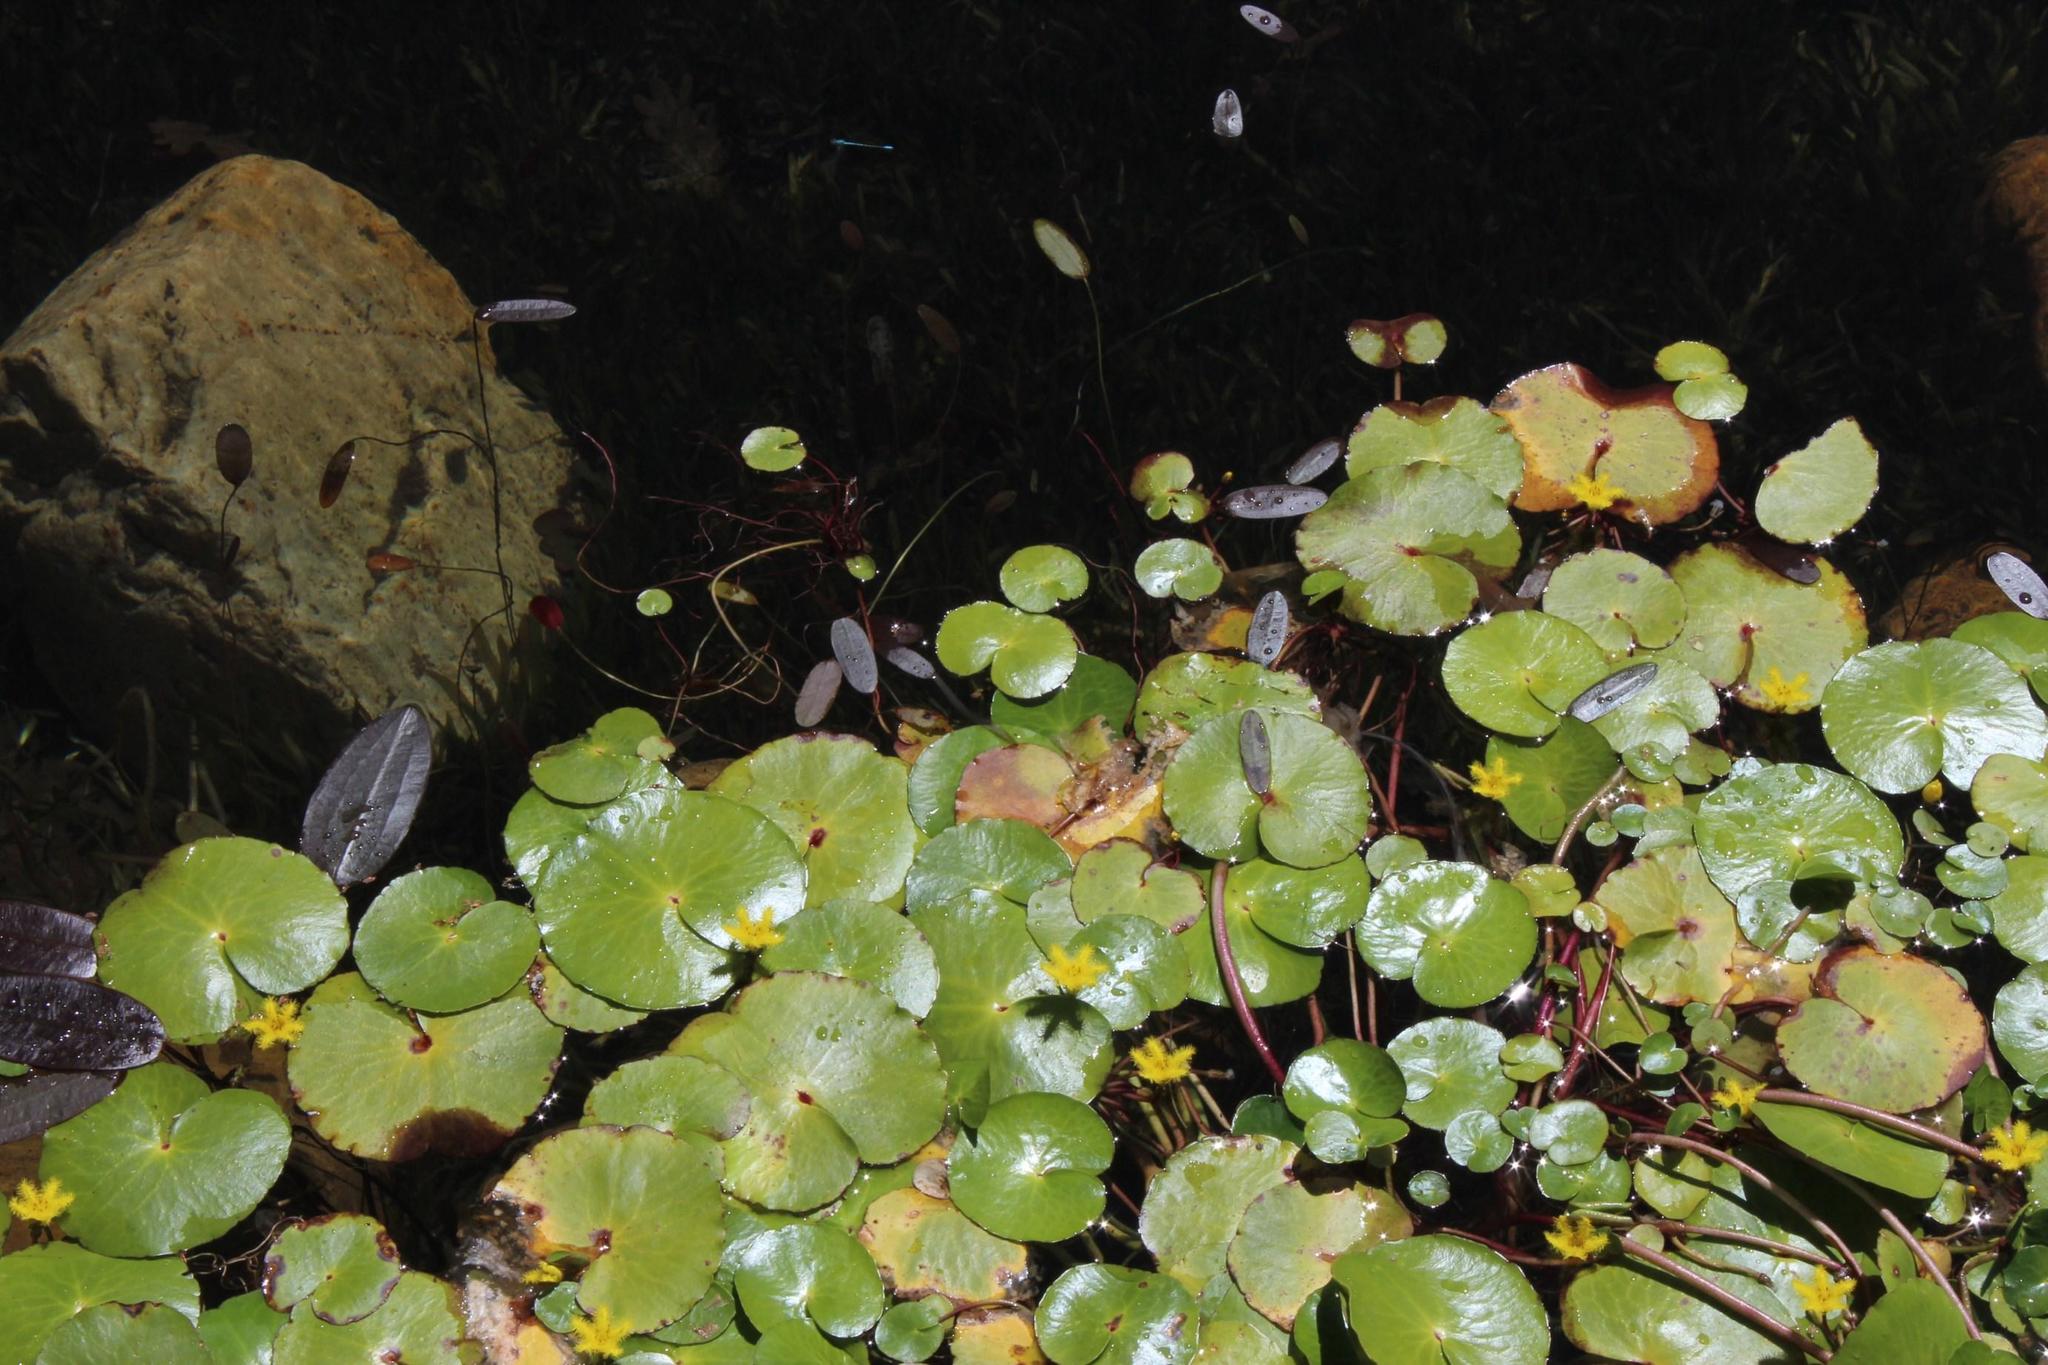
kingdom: Plantae
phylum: Tracheophyta
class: Magnoliopsida
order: Asterales
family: Menyanthaceae
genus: Nymphoides
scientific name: Nymphoides thunbergiana
